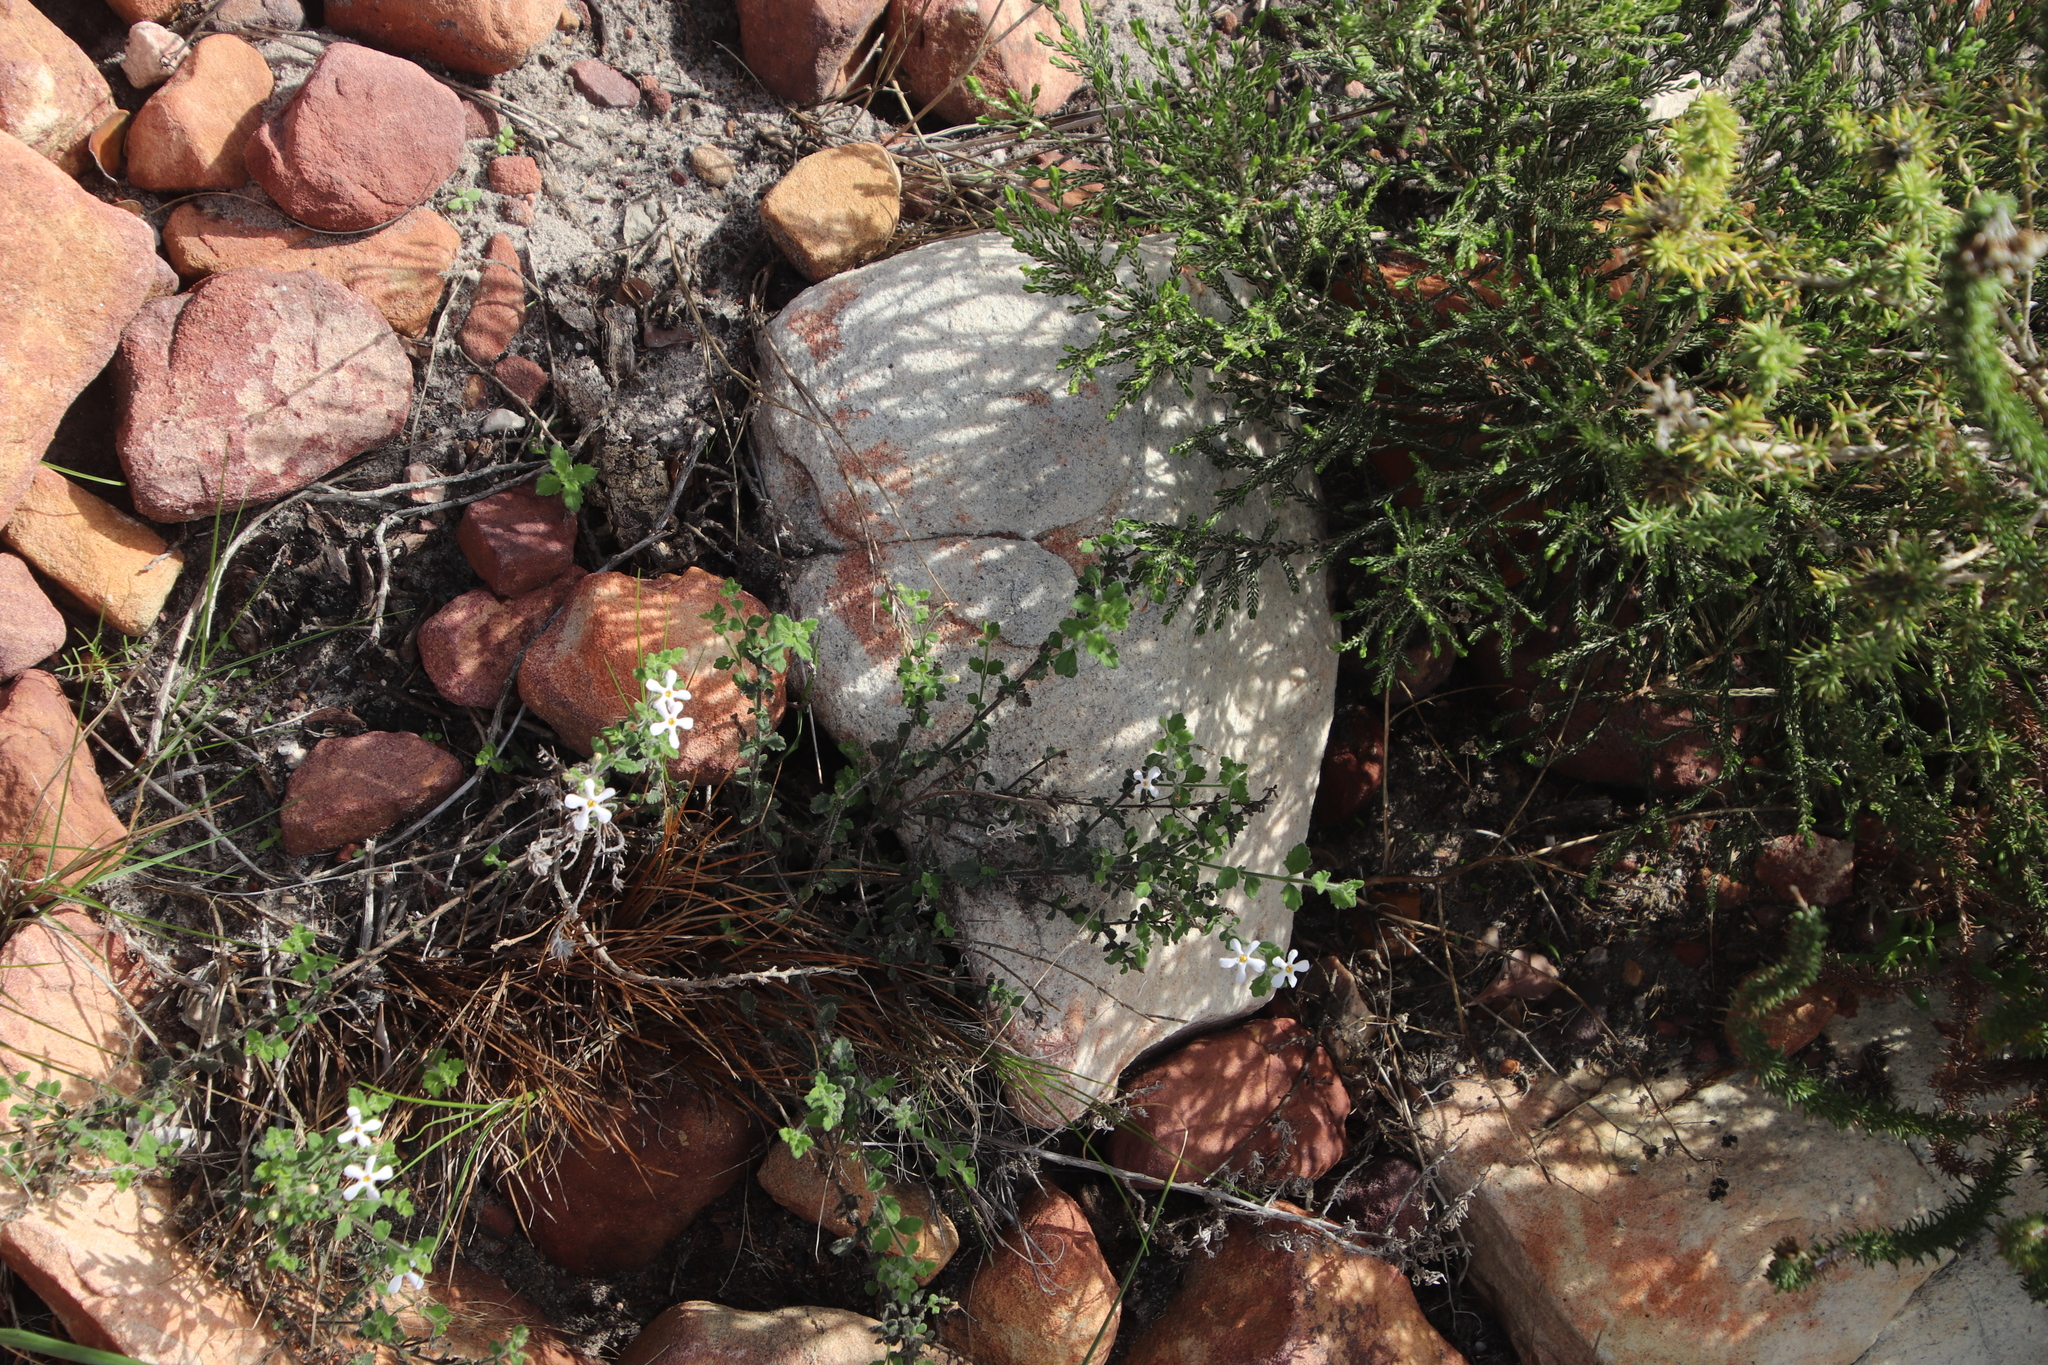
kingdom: Plantae
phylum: Tracheophyta
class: Magnoliopsida
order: Lamiales
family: Scrophulariaceae
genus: Chaenostoma
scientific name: Chaenostoma hispidum
